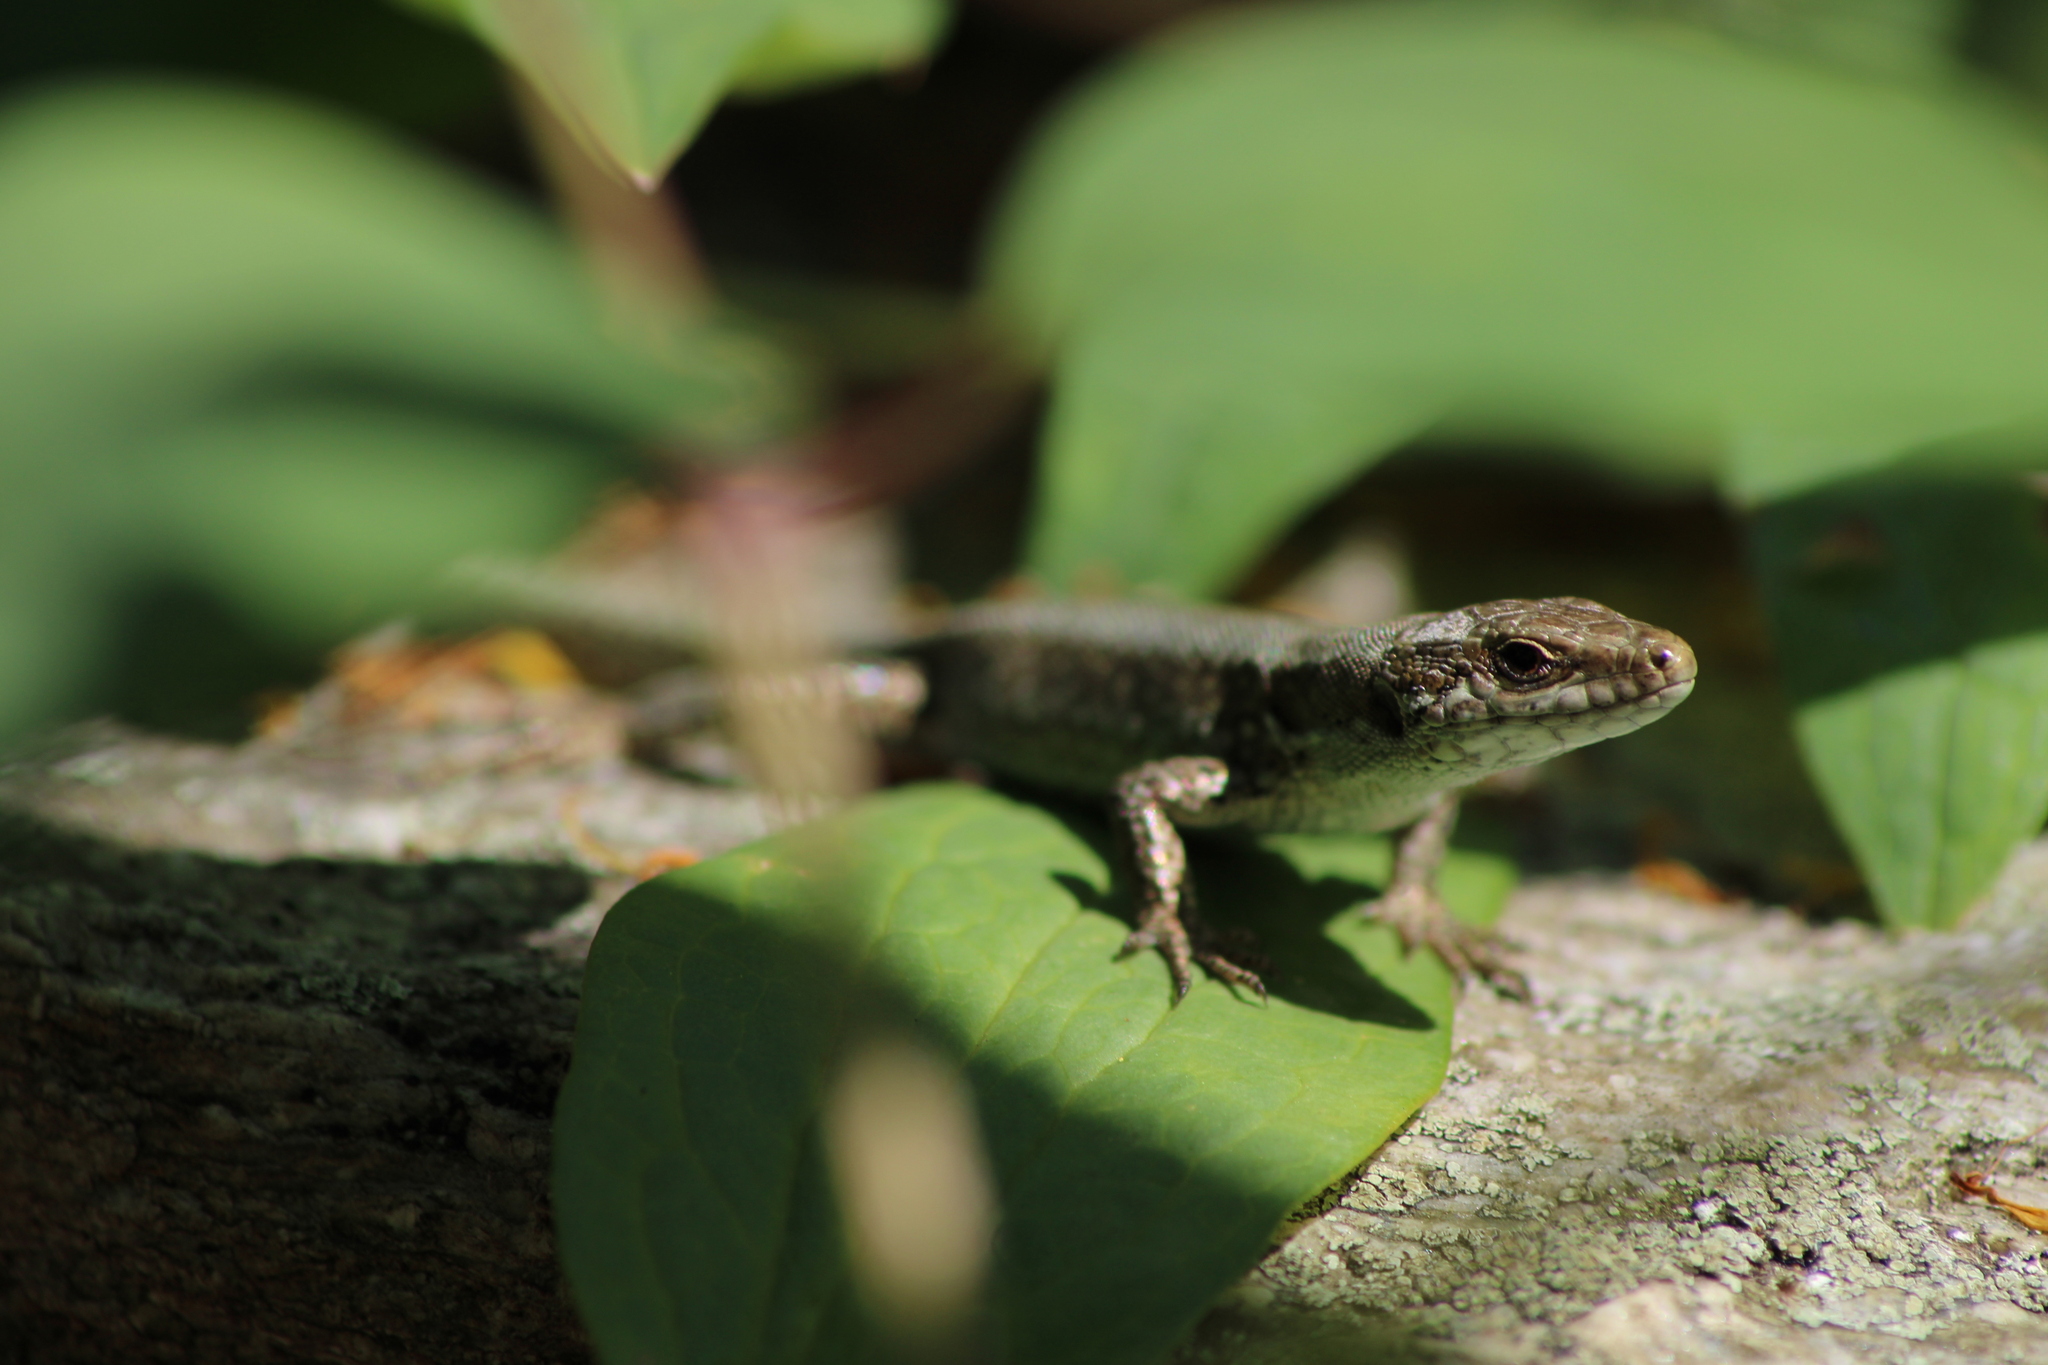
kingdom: Animalia
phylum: Chordata
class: Squamata
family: Lacertidae
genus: Podarcis
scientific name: Podarcis muralis
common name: Common wall lizard
